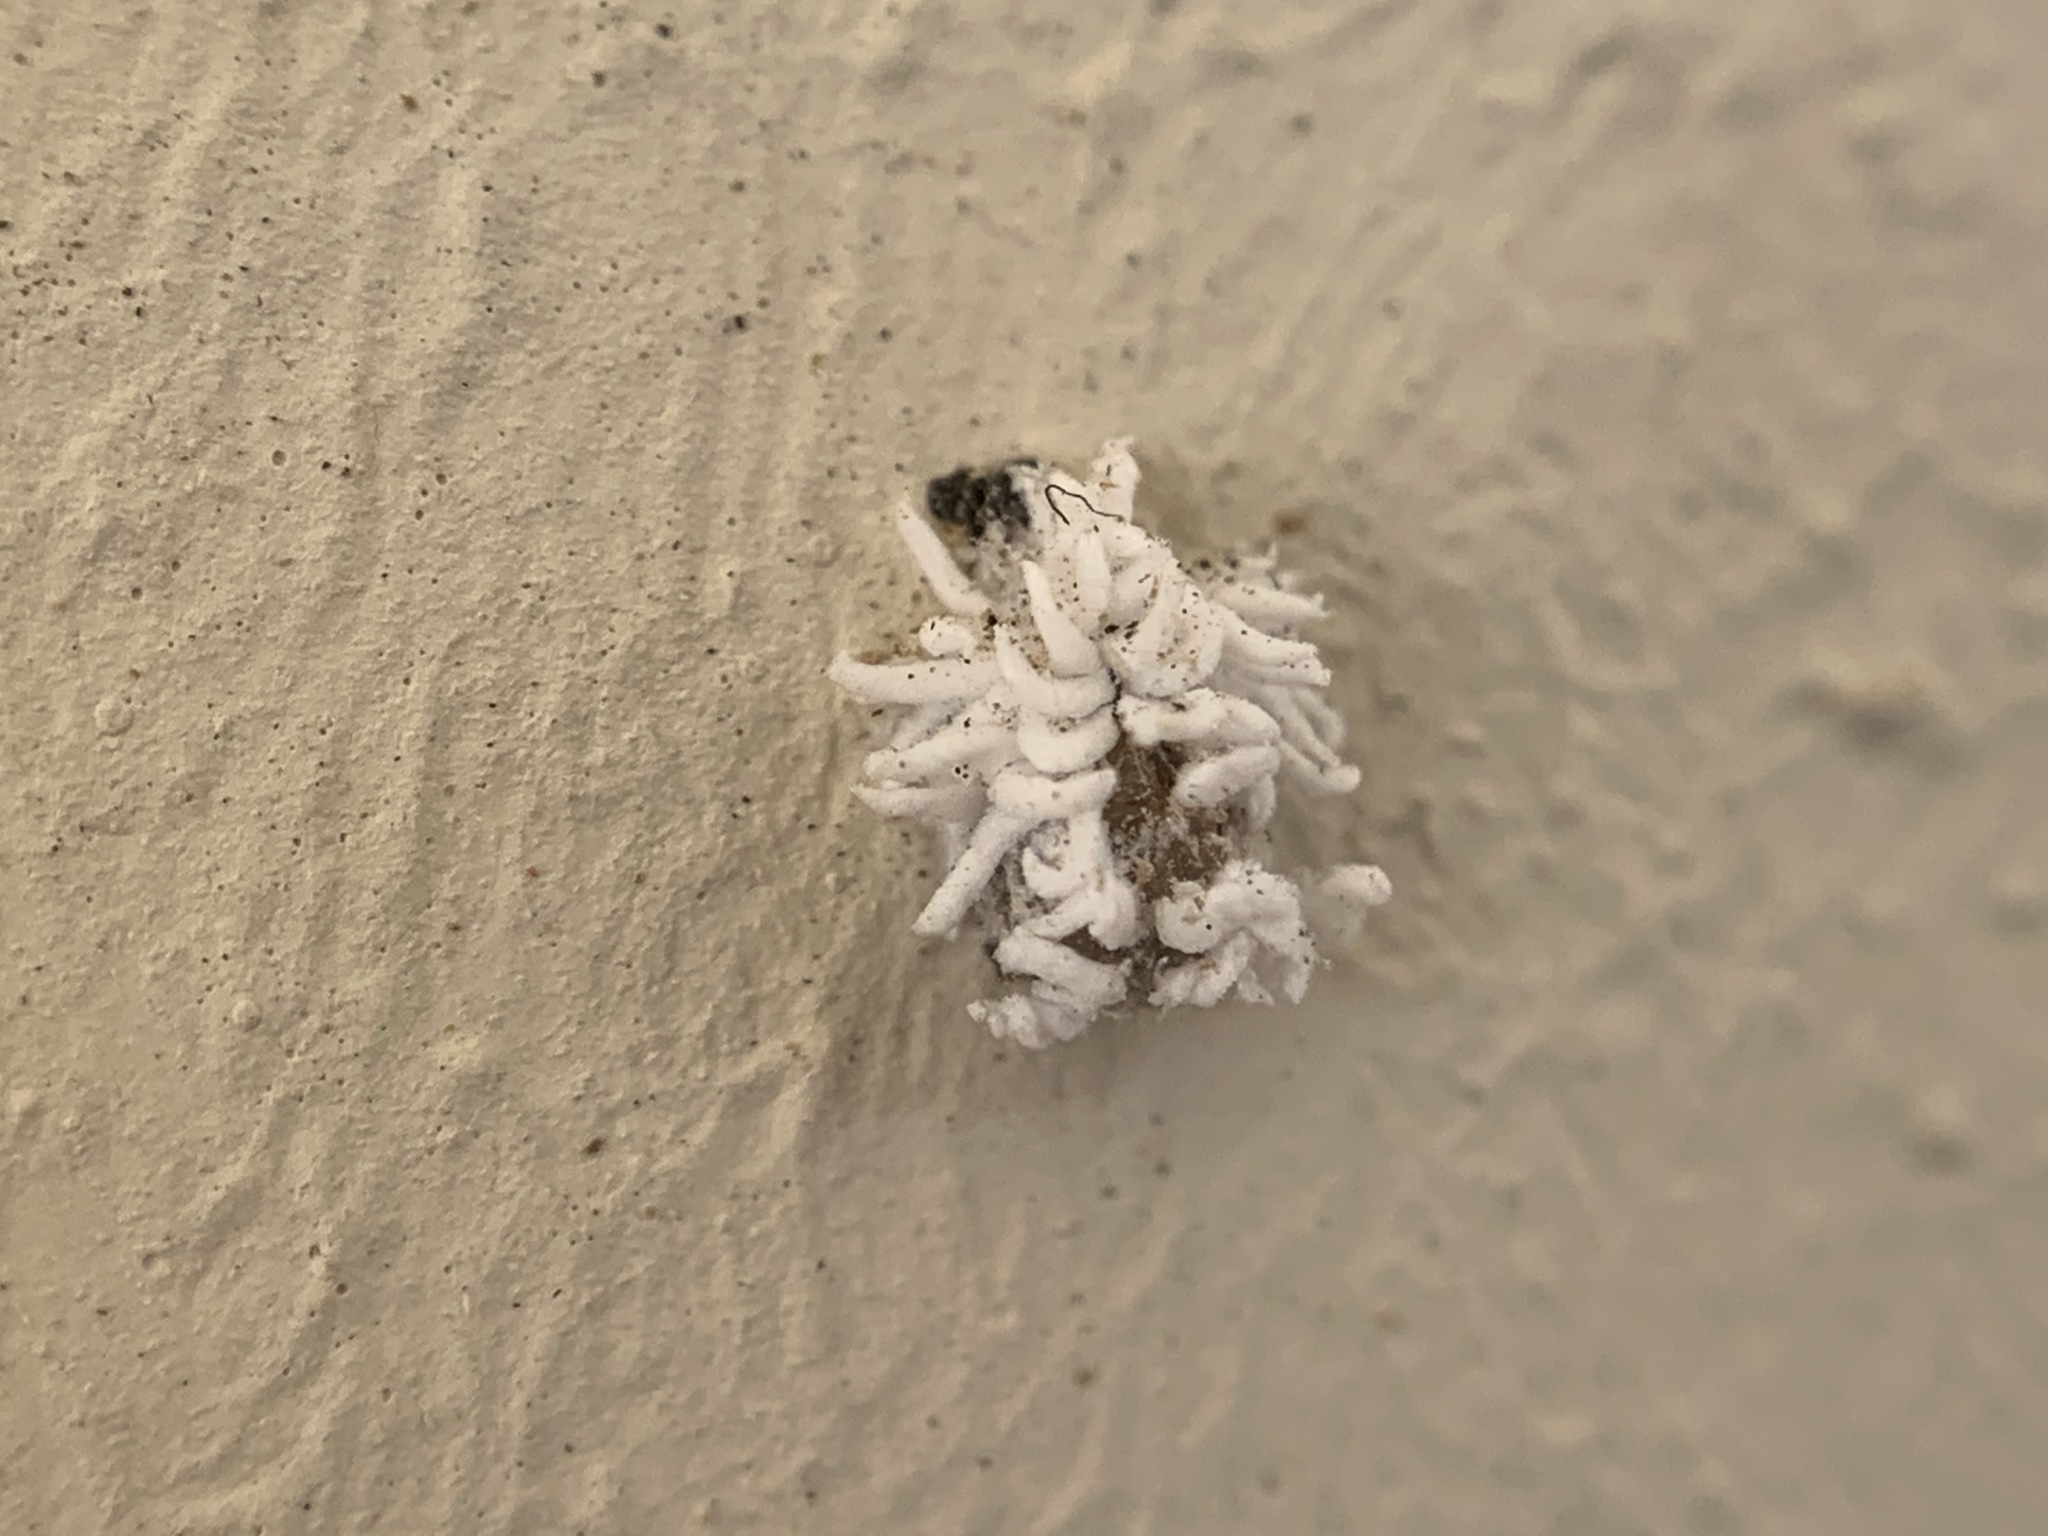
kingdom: Animalia
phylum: Arthropoda
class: Insecta
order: Coleoptera
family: Coccinellidae
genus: Cryptolaemus
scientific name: Cryptolaemus montrouzieri
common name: Mealybug destroyer
